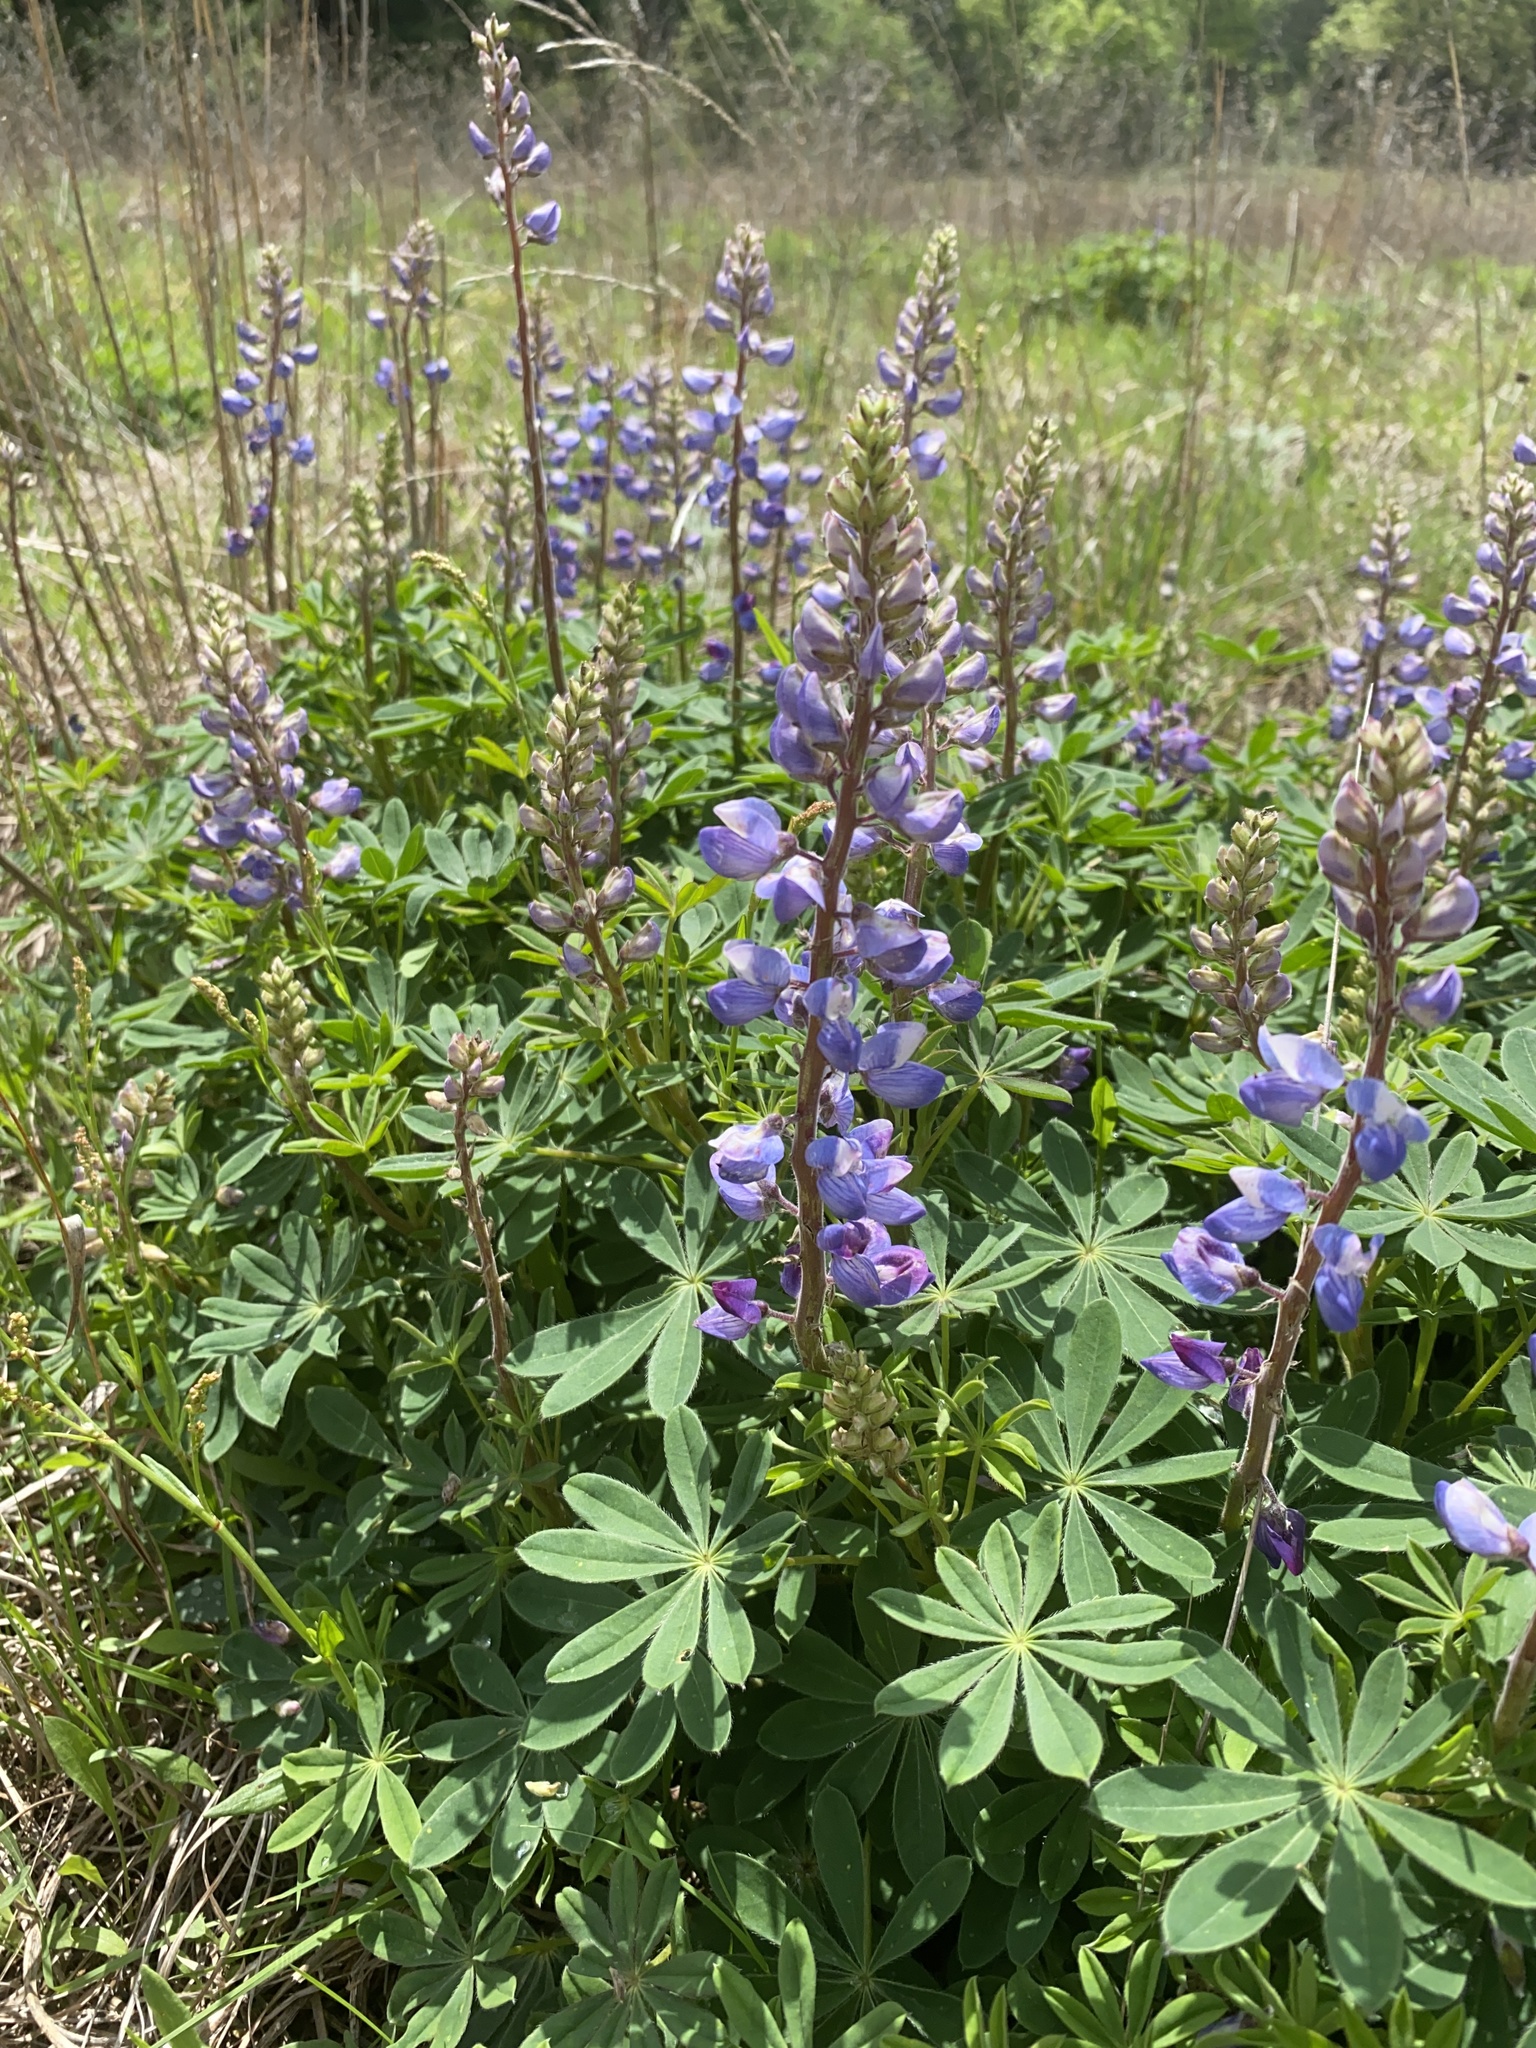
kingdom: Plantae
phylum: Tracheophyta
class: Magnoliopsida
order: Fabales
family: Fabaceae
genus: Lupinus
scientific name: Lupinus perennis
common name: Sundial lupine
